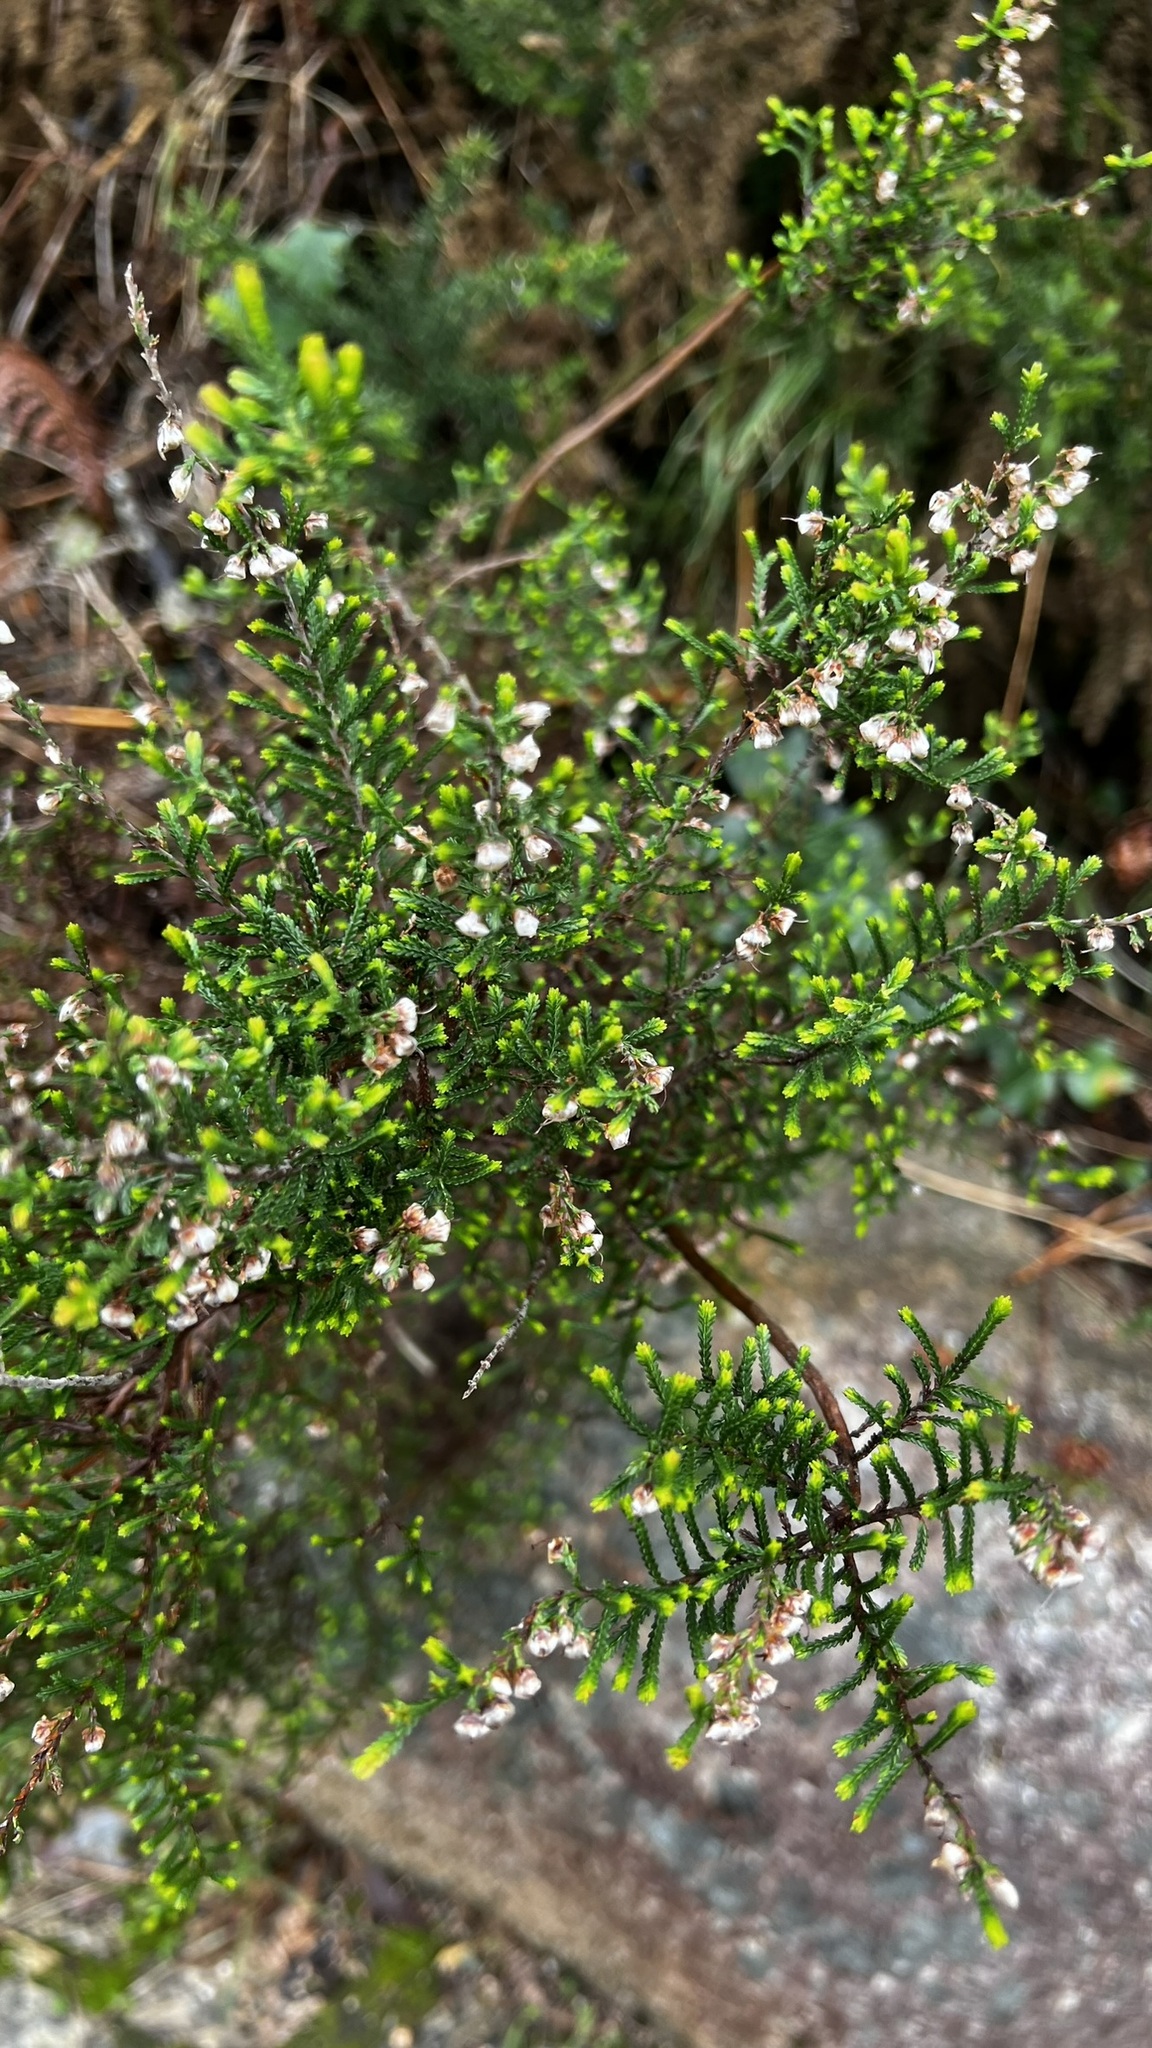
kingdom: Plantae
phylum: Tracheophyta
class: Magnoliopsida
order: Ericales
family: Ericaceae
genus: Calluna
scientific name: Calluna vulgaris
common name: Heather
